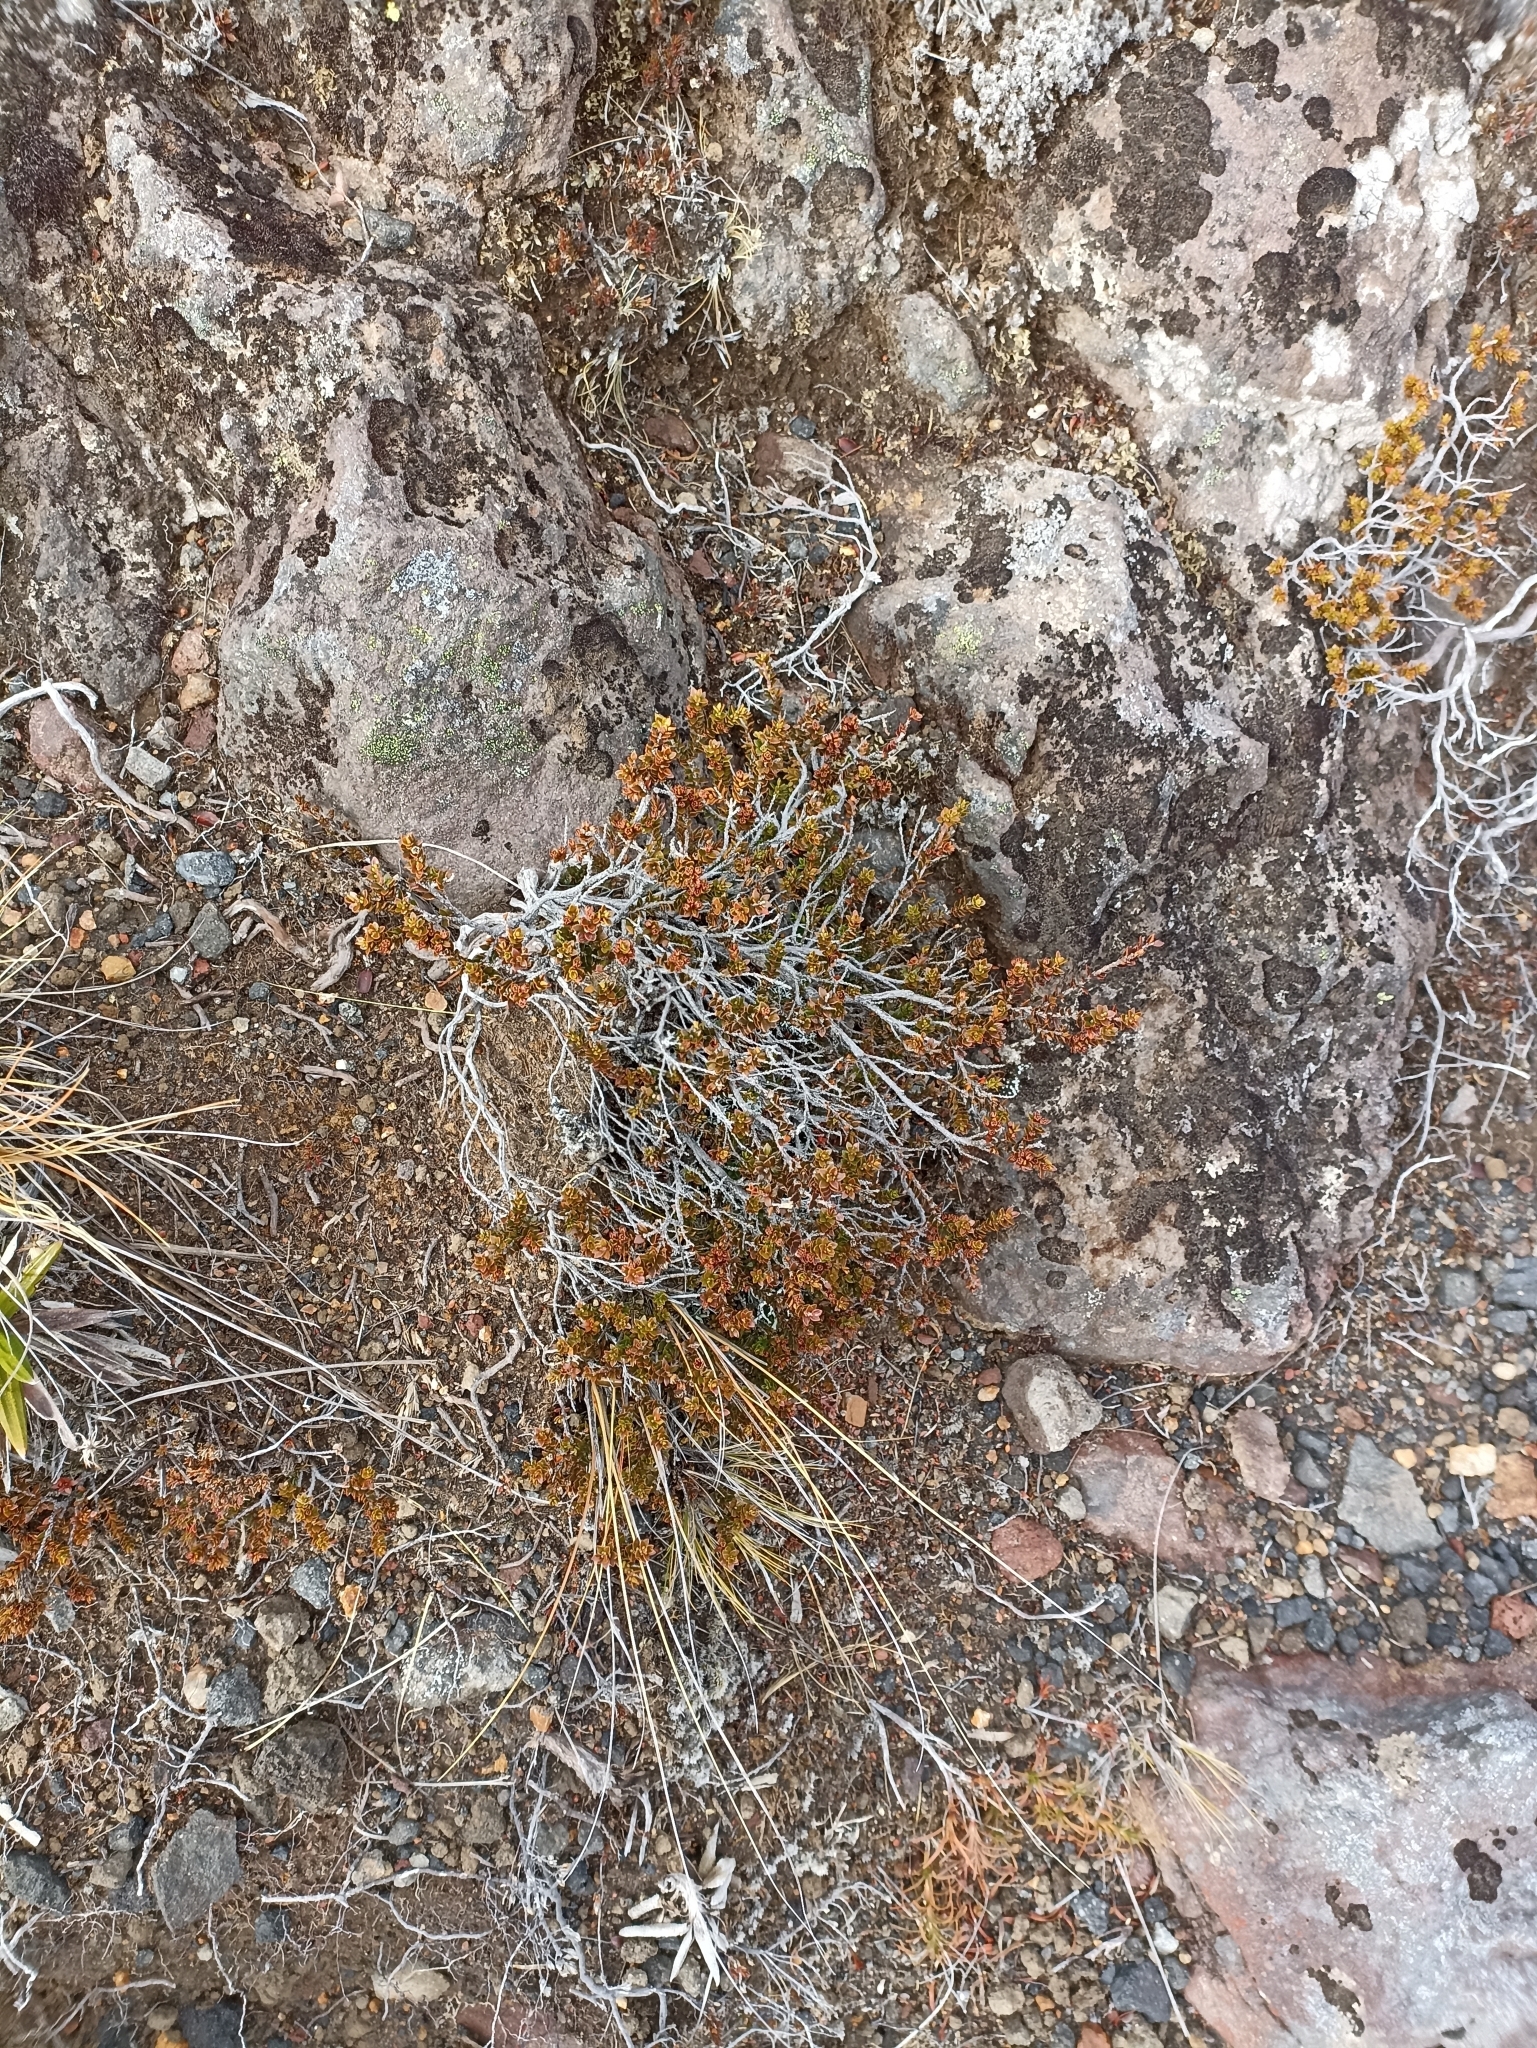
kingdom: Plantae
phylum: Tracheophyta
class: Magnoliopsida
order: Ericales
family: Ericaceae
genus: Epacris
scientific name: Epacris alpina
